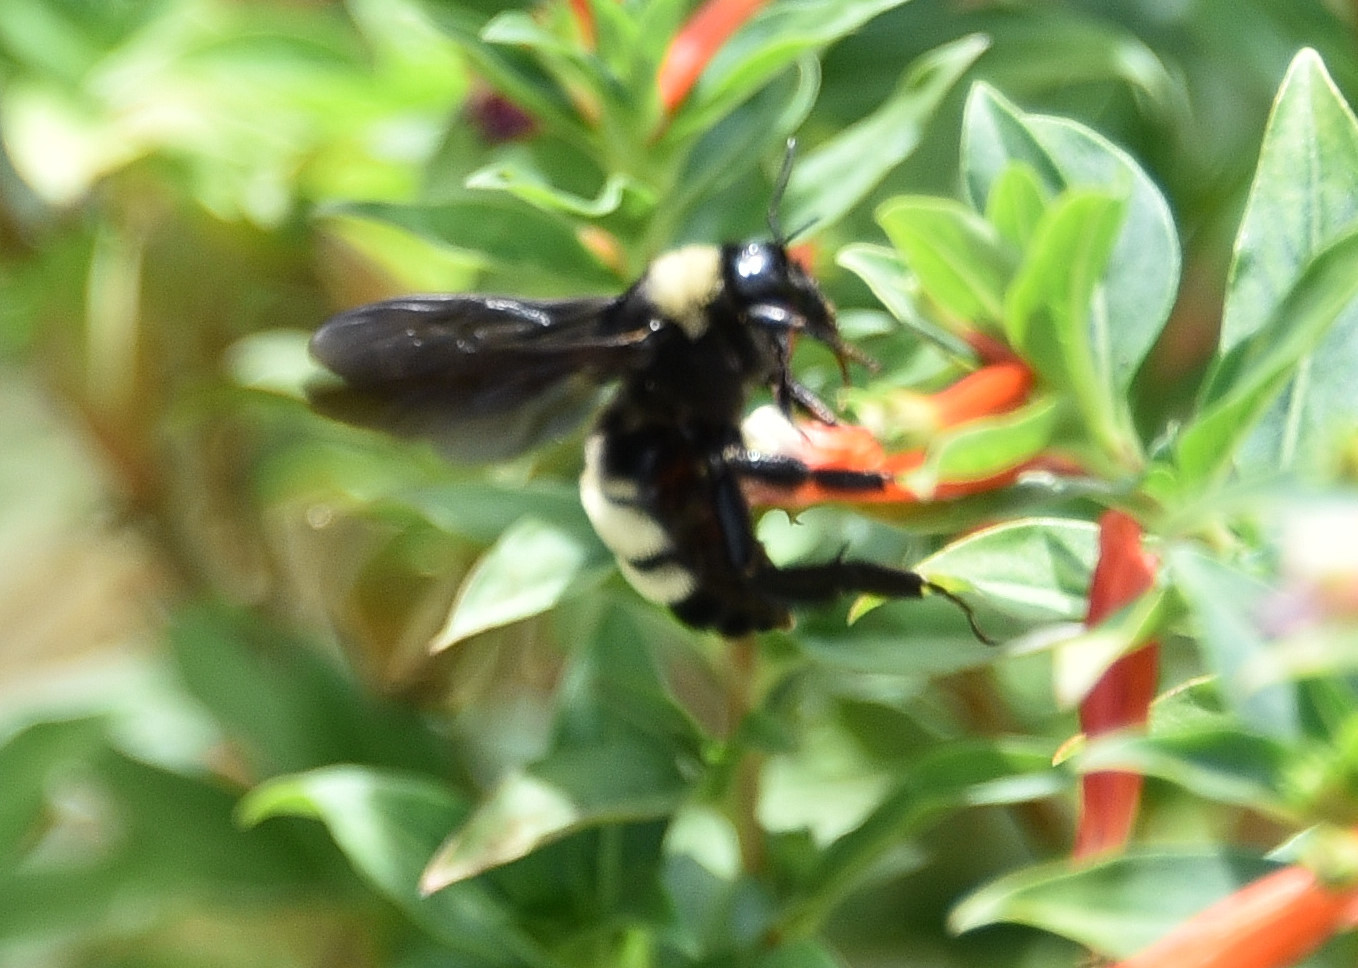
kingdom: Animalia
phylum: Arthropoda
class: Insecta
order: Hymenoptera
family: Apidae
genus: Bombus
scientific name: Bombus pensylvanicus
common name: Bumble bee
